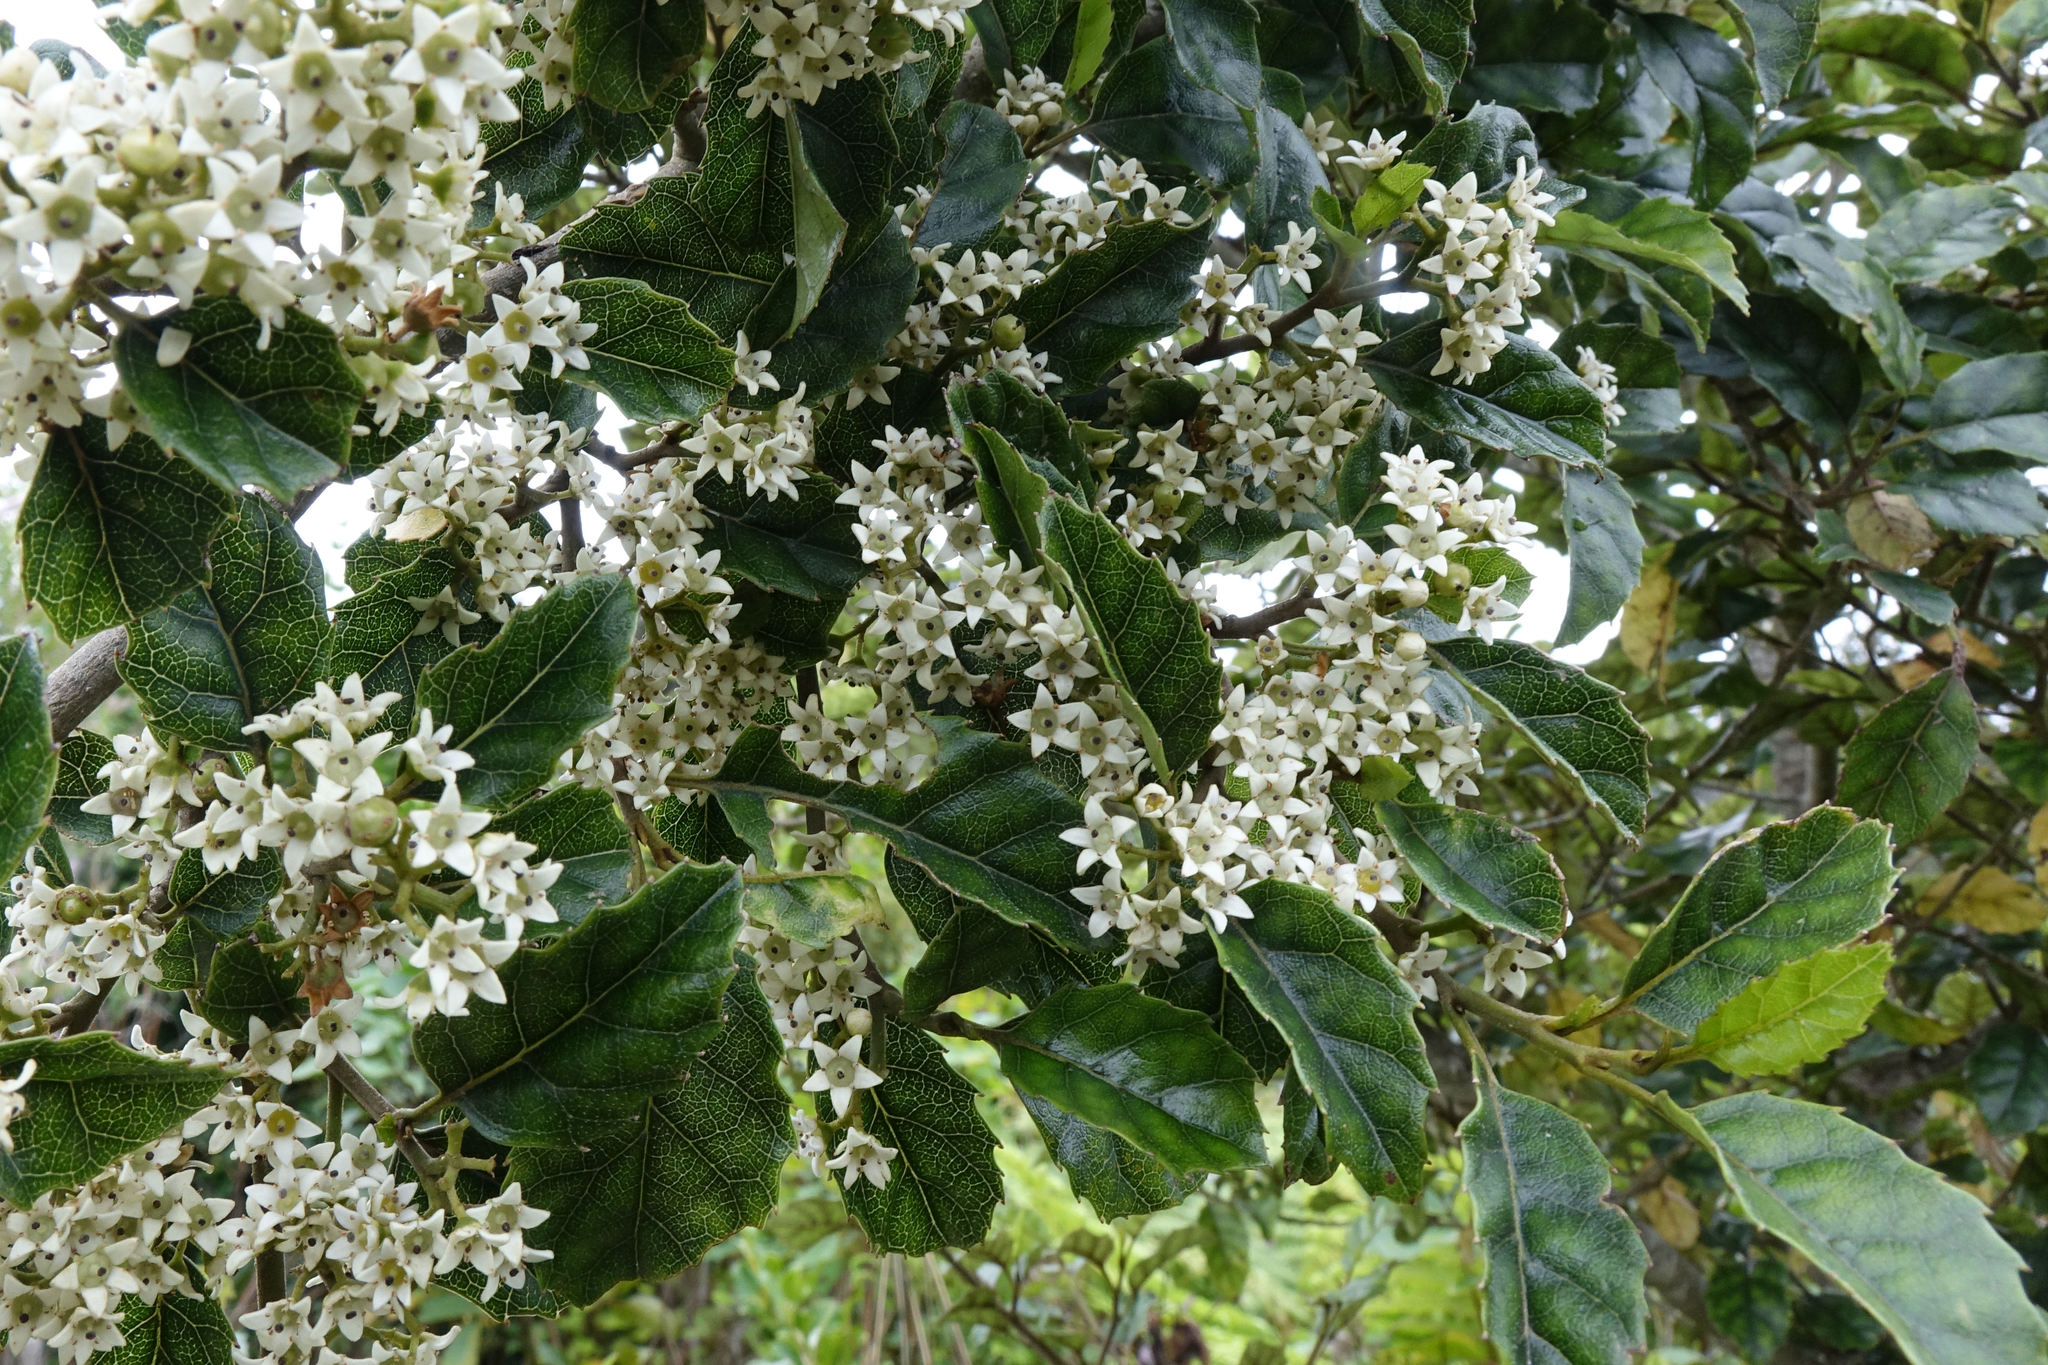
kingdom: Plantae
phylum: Tracheophyta
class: Magnoliopsida
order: Asterales
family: Rousseaceae
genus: Carpodetus
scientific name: Carpodetus serratus
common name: White mapau
